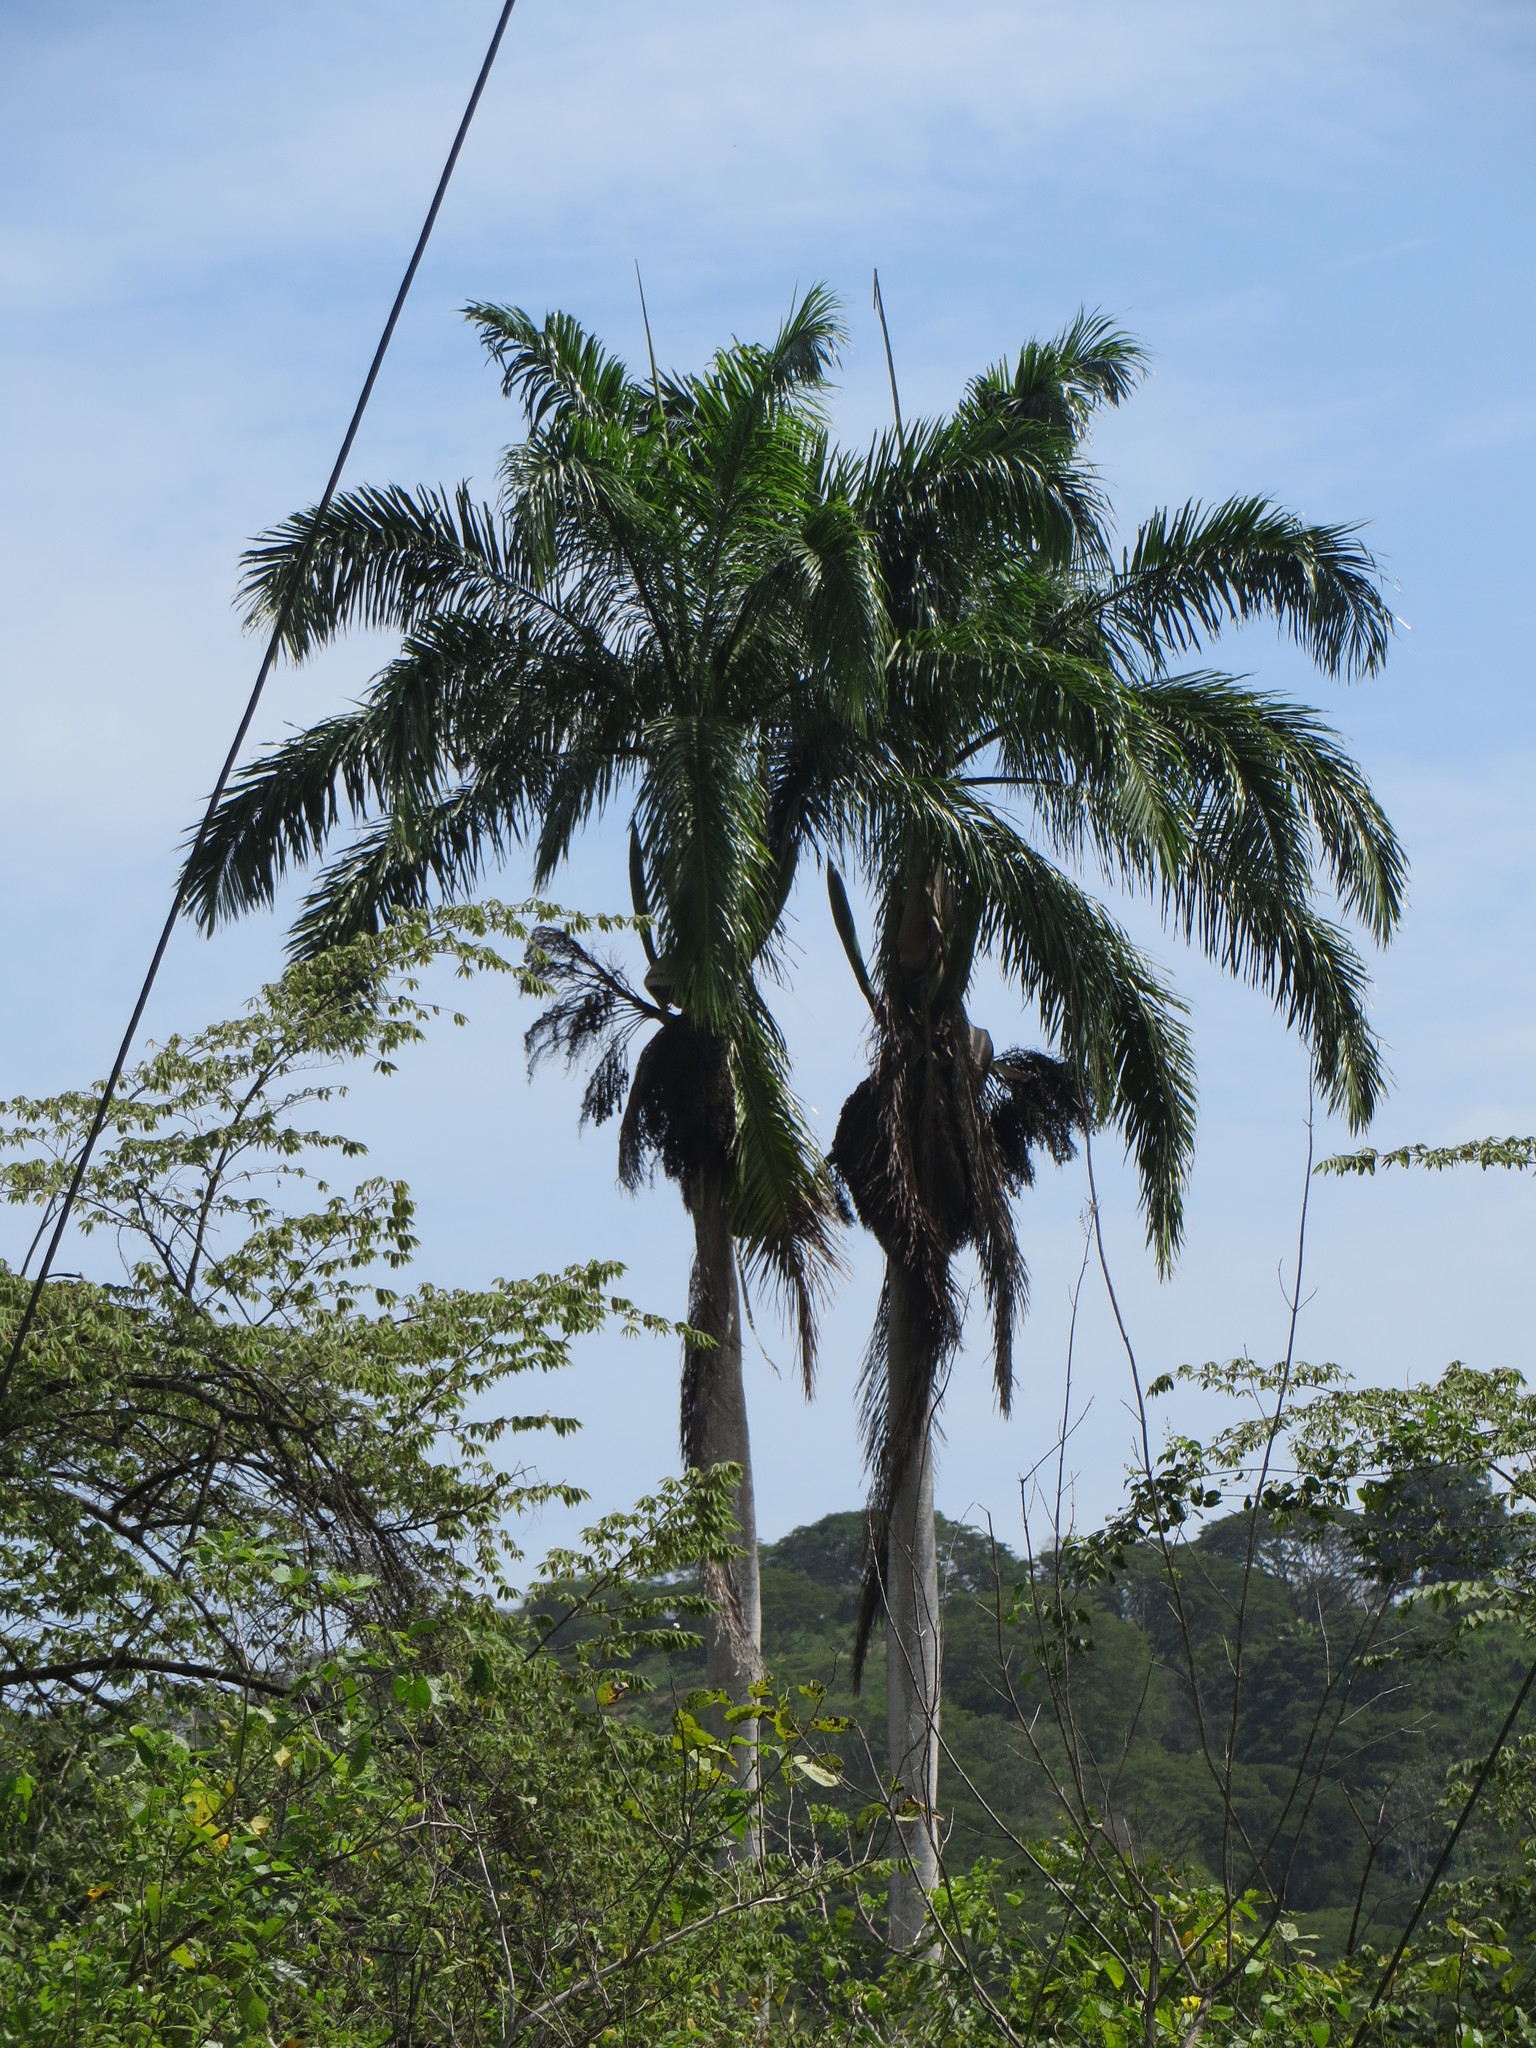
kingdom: Plantae
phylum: Tracheophyta
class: Liliopsida
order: Arecales
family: Arecaceae
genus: Roystonea
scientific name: Roystonea regia
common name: Florida royal palm
